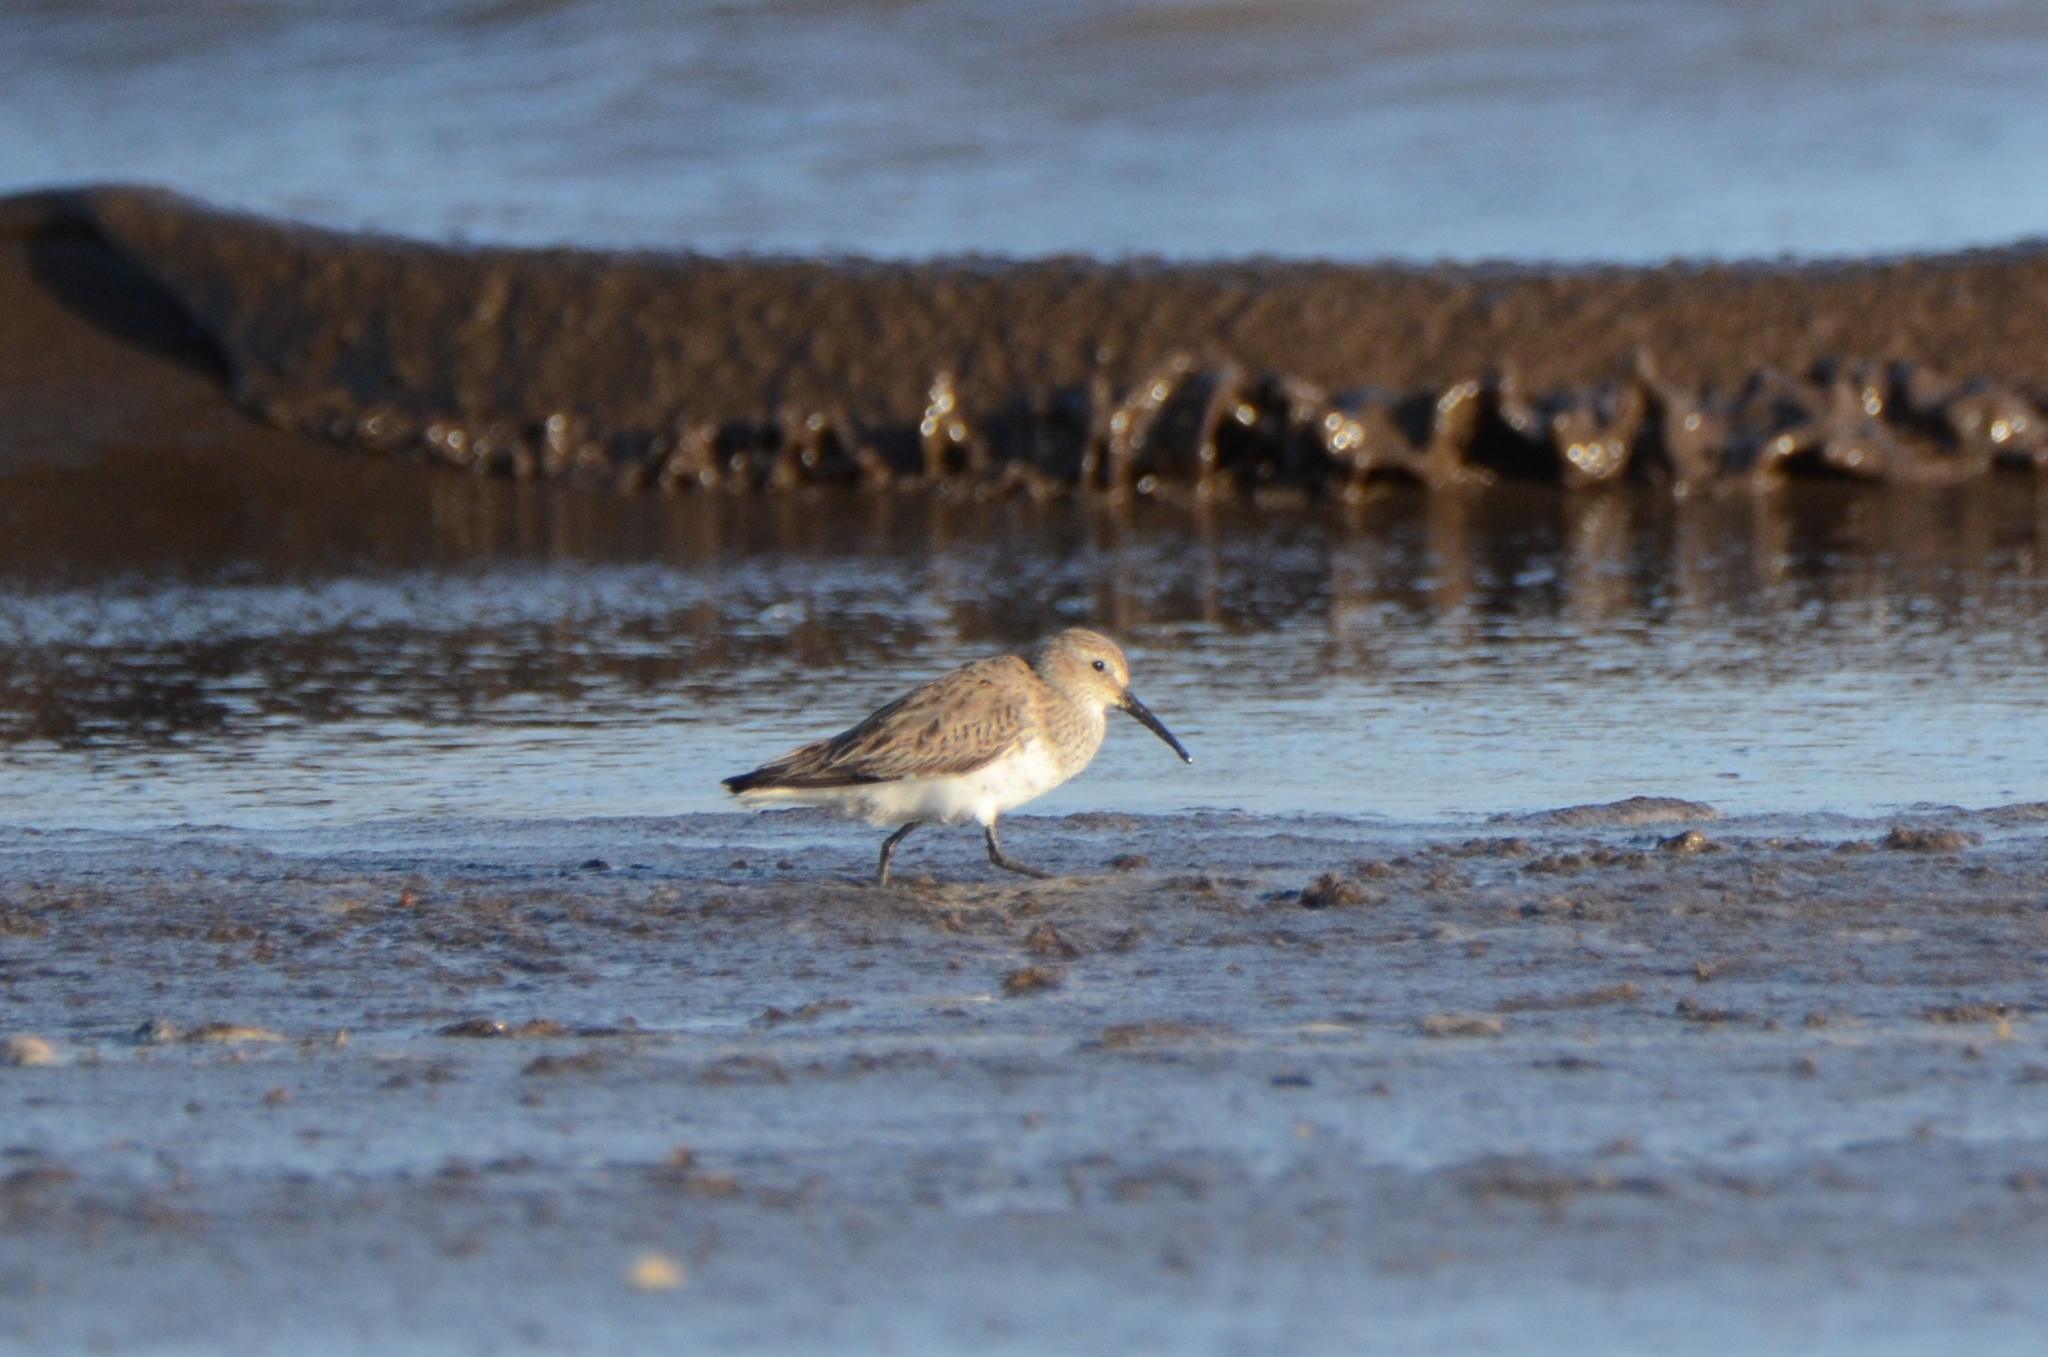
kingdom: Animalia
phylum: Chordata
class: Aves
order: Charadriiformes
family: Scolopacidae
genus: Calidris
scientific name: Calidris mauri
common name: Western sandpiper
